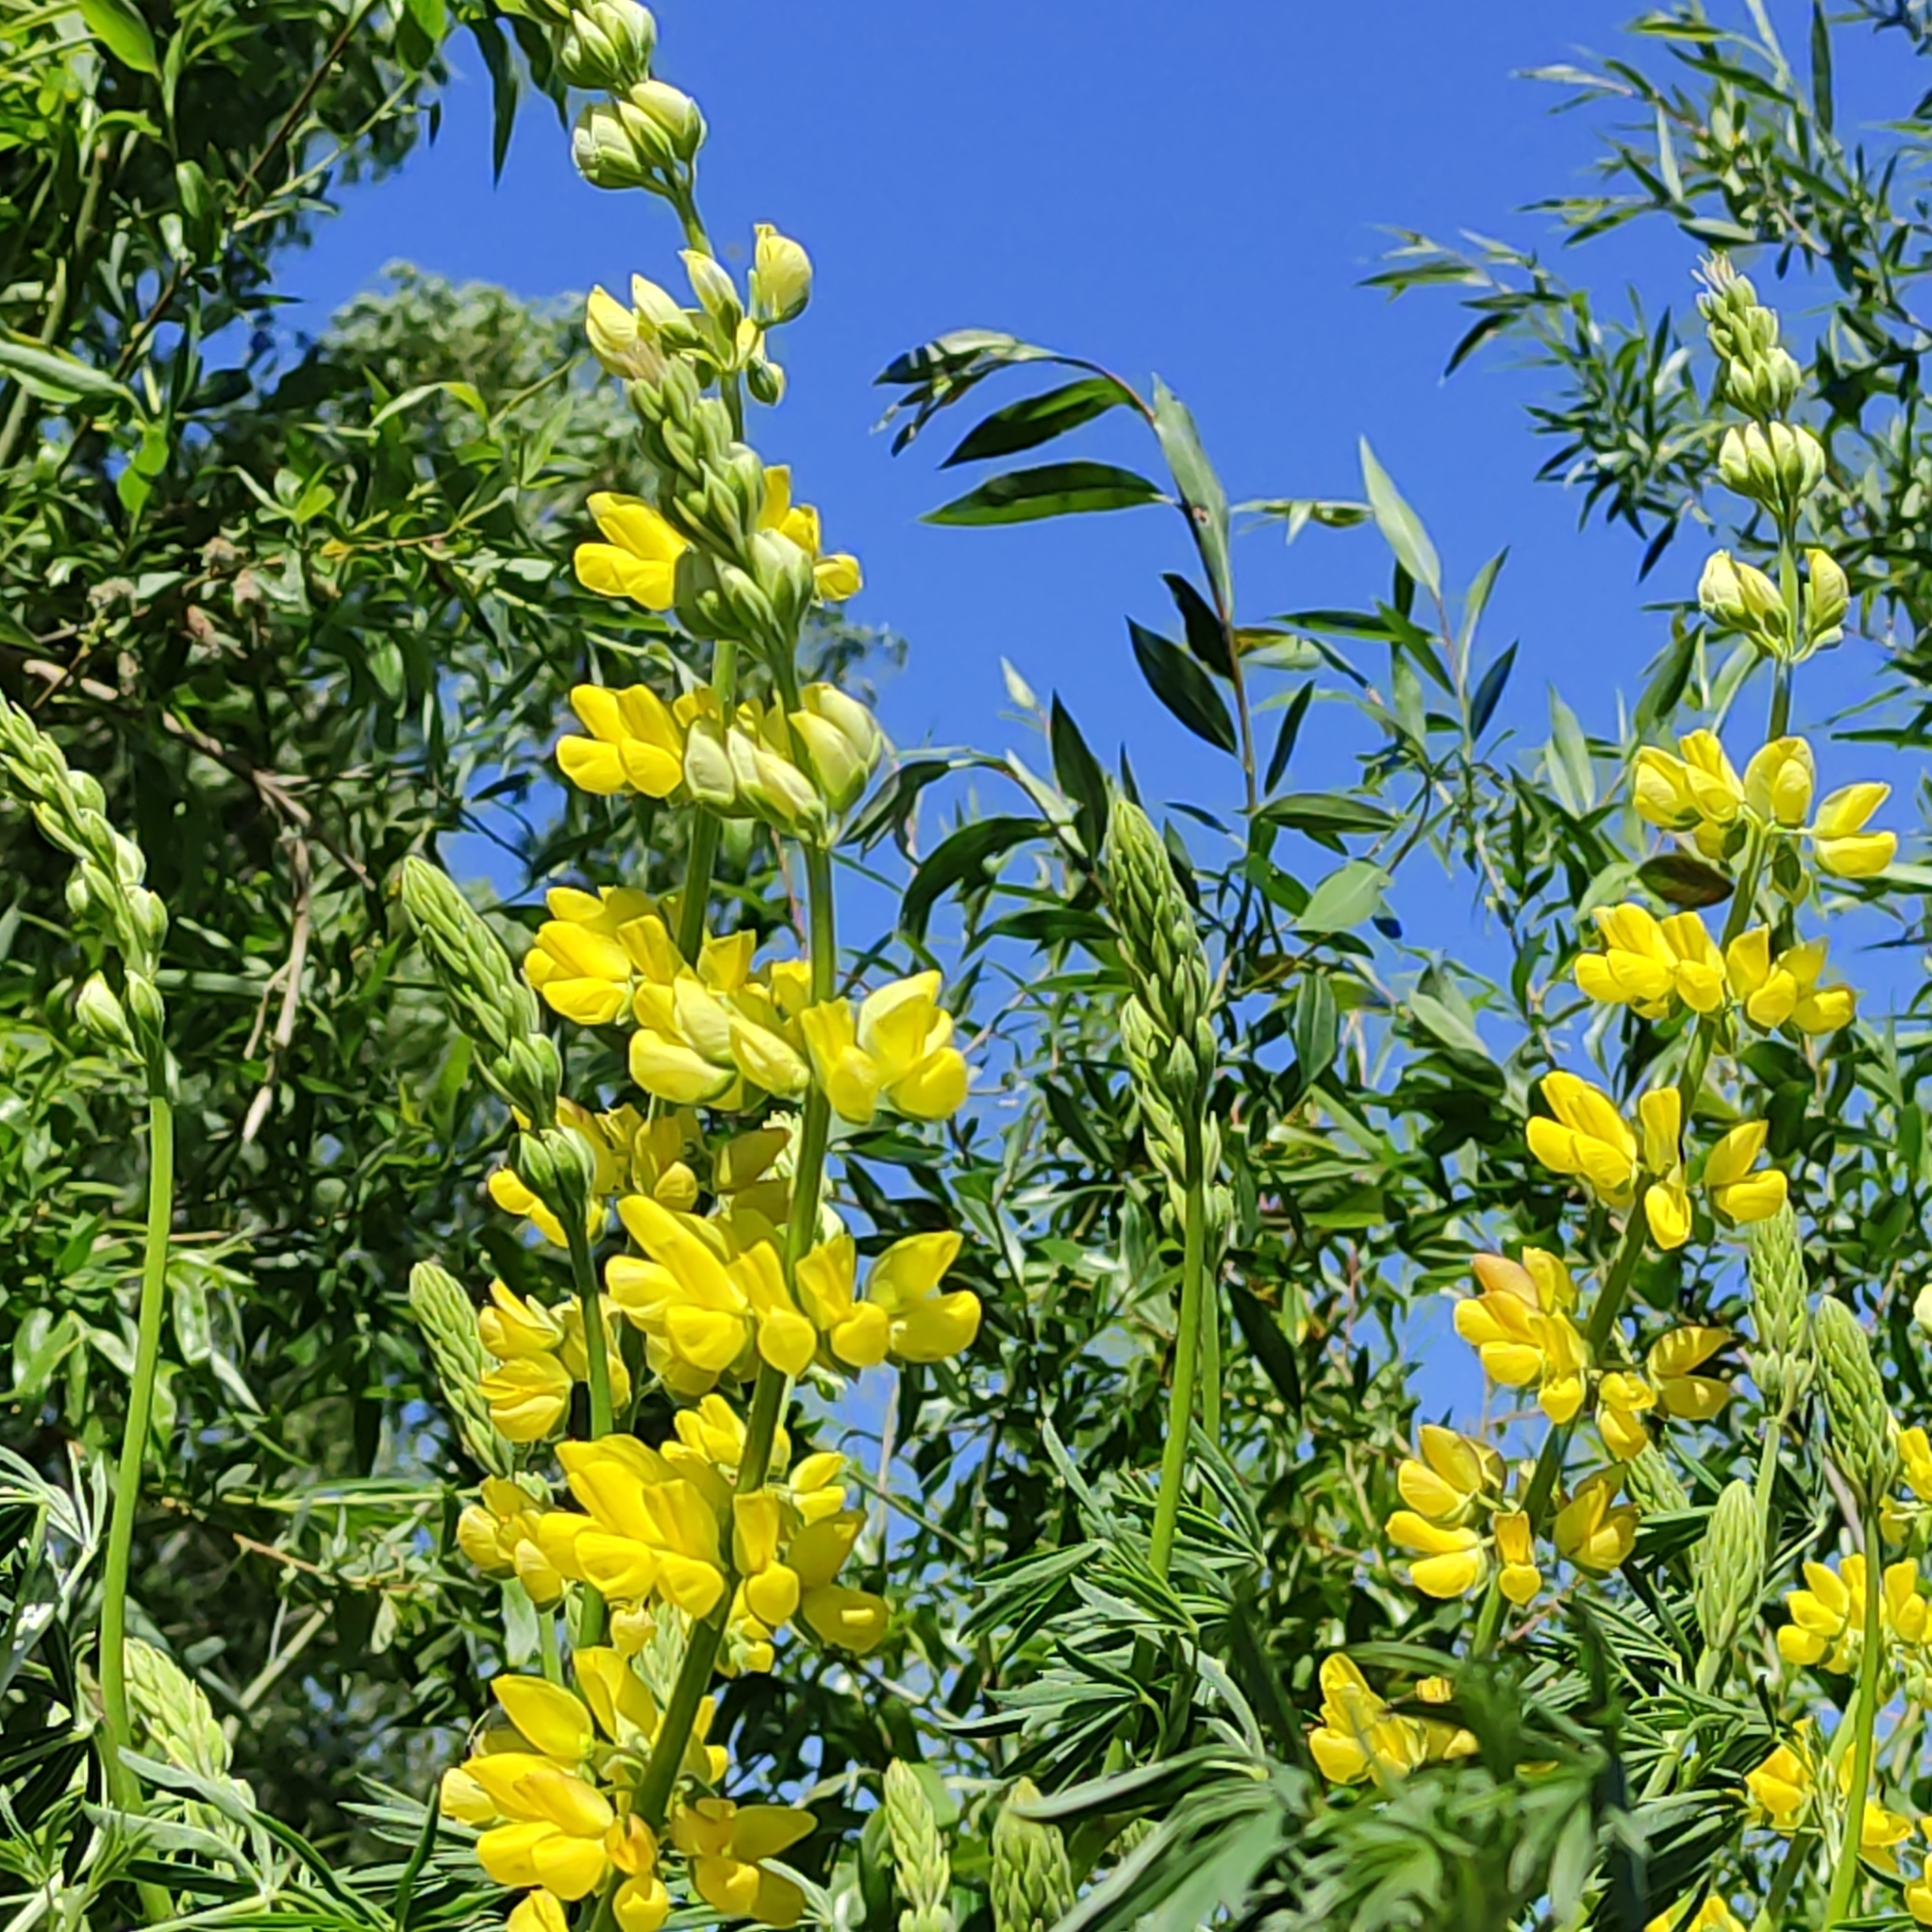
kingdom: Plantae
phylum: Tracheophyta
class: Magnoliopsida
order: Fabales
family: Fabaceae
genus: Lupinus
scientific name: Lupinus arboreus
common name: Yellow bush lupine
